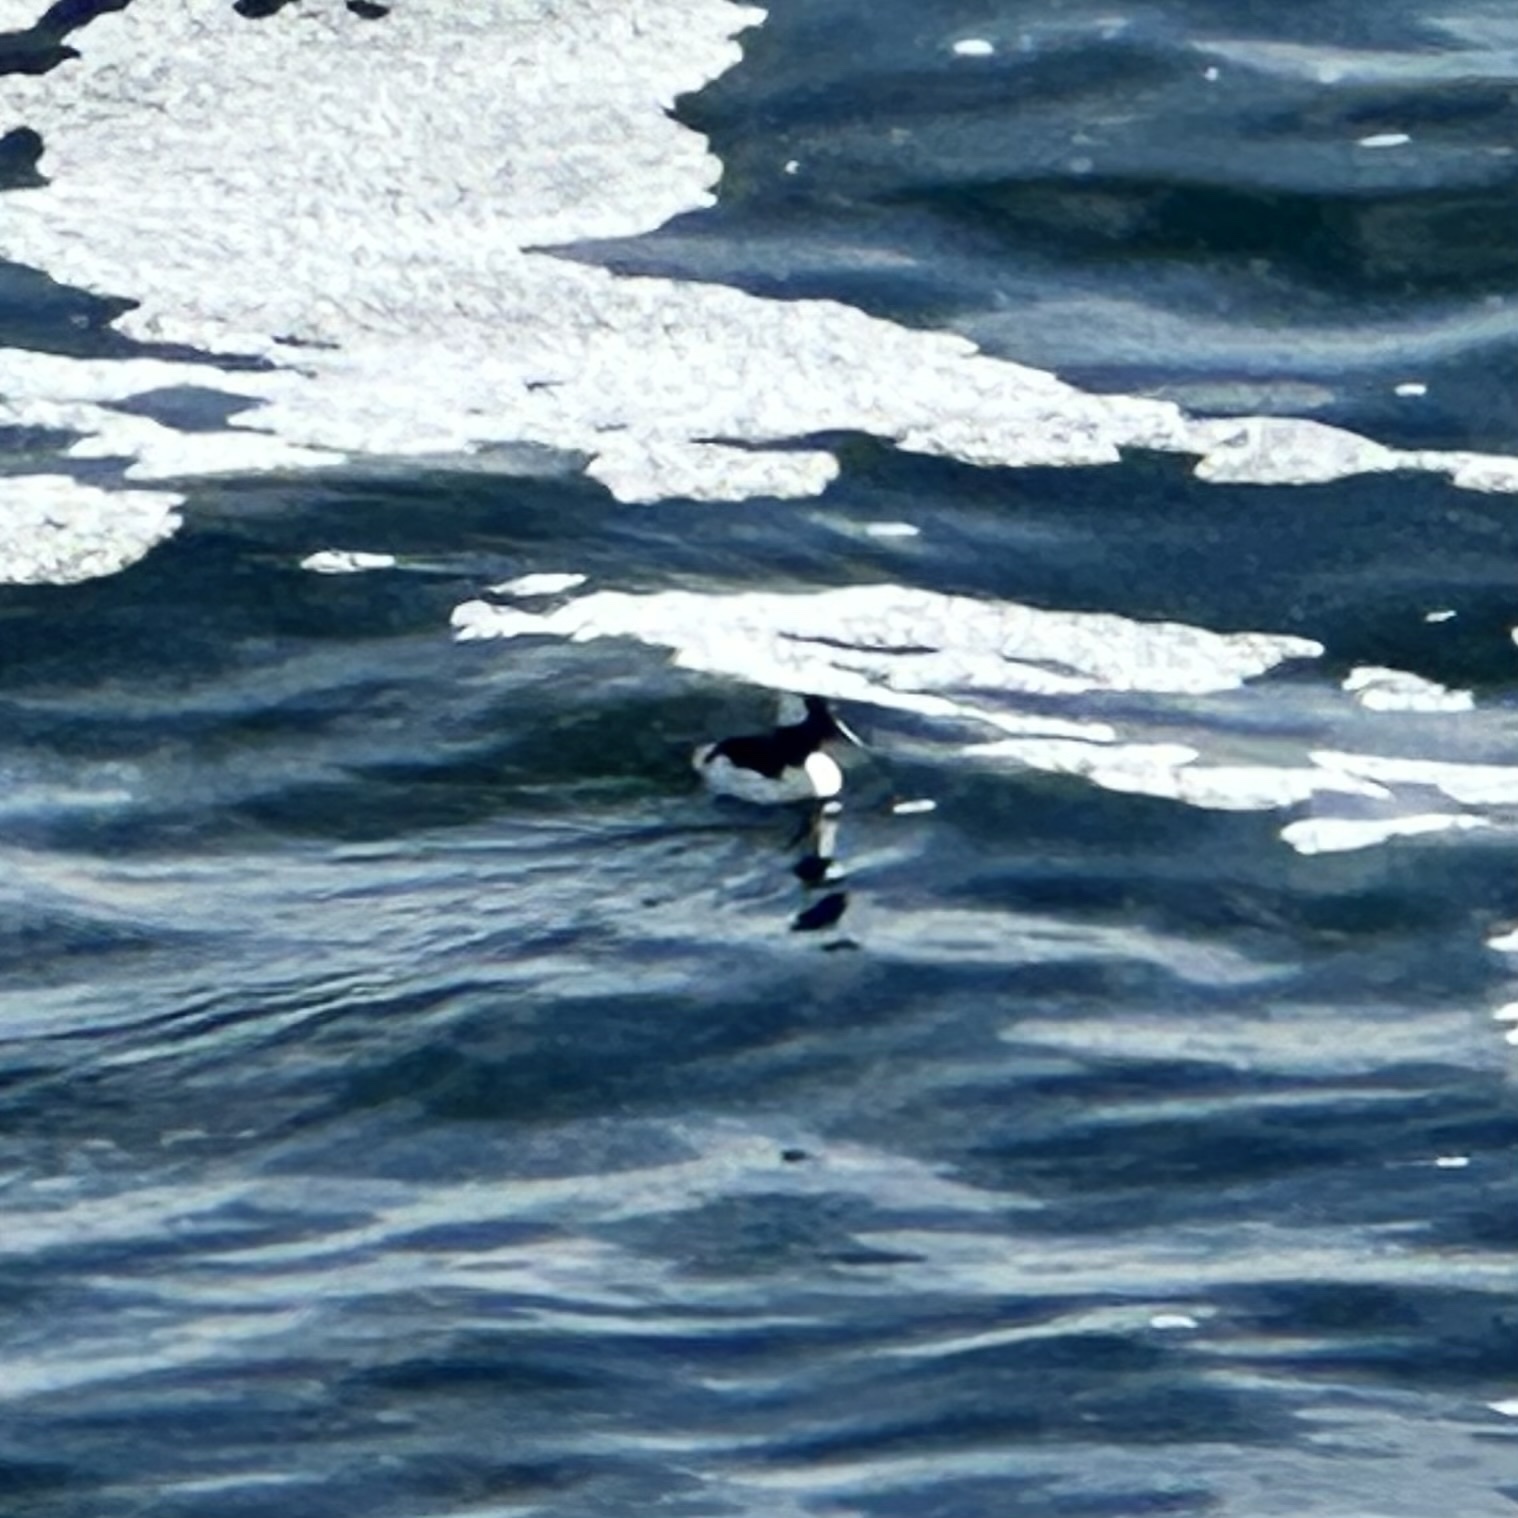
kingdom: Animalia
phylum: Chordata
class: Aves
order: Anseriformes
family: Anatidae
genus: Bucephala
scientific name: Bucephala albeola
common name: Bufflehead
